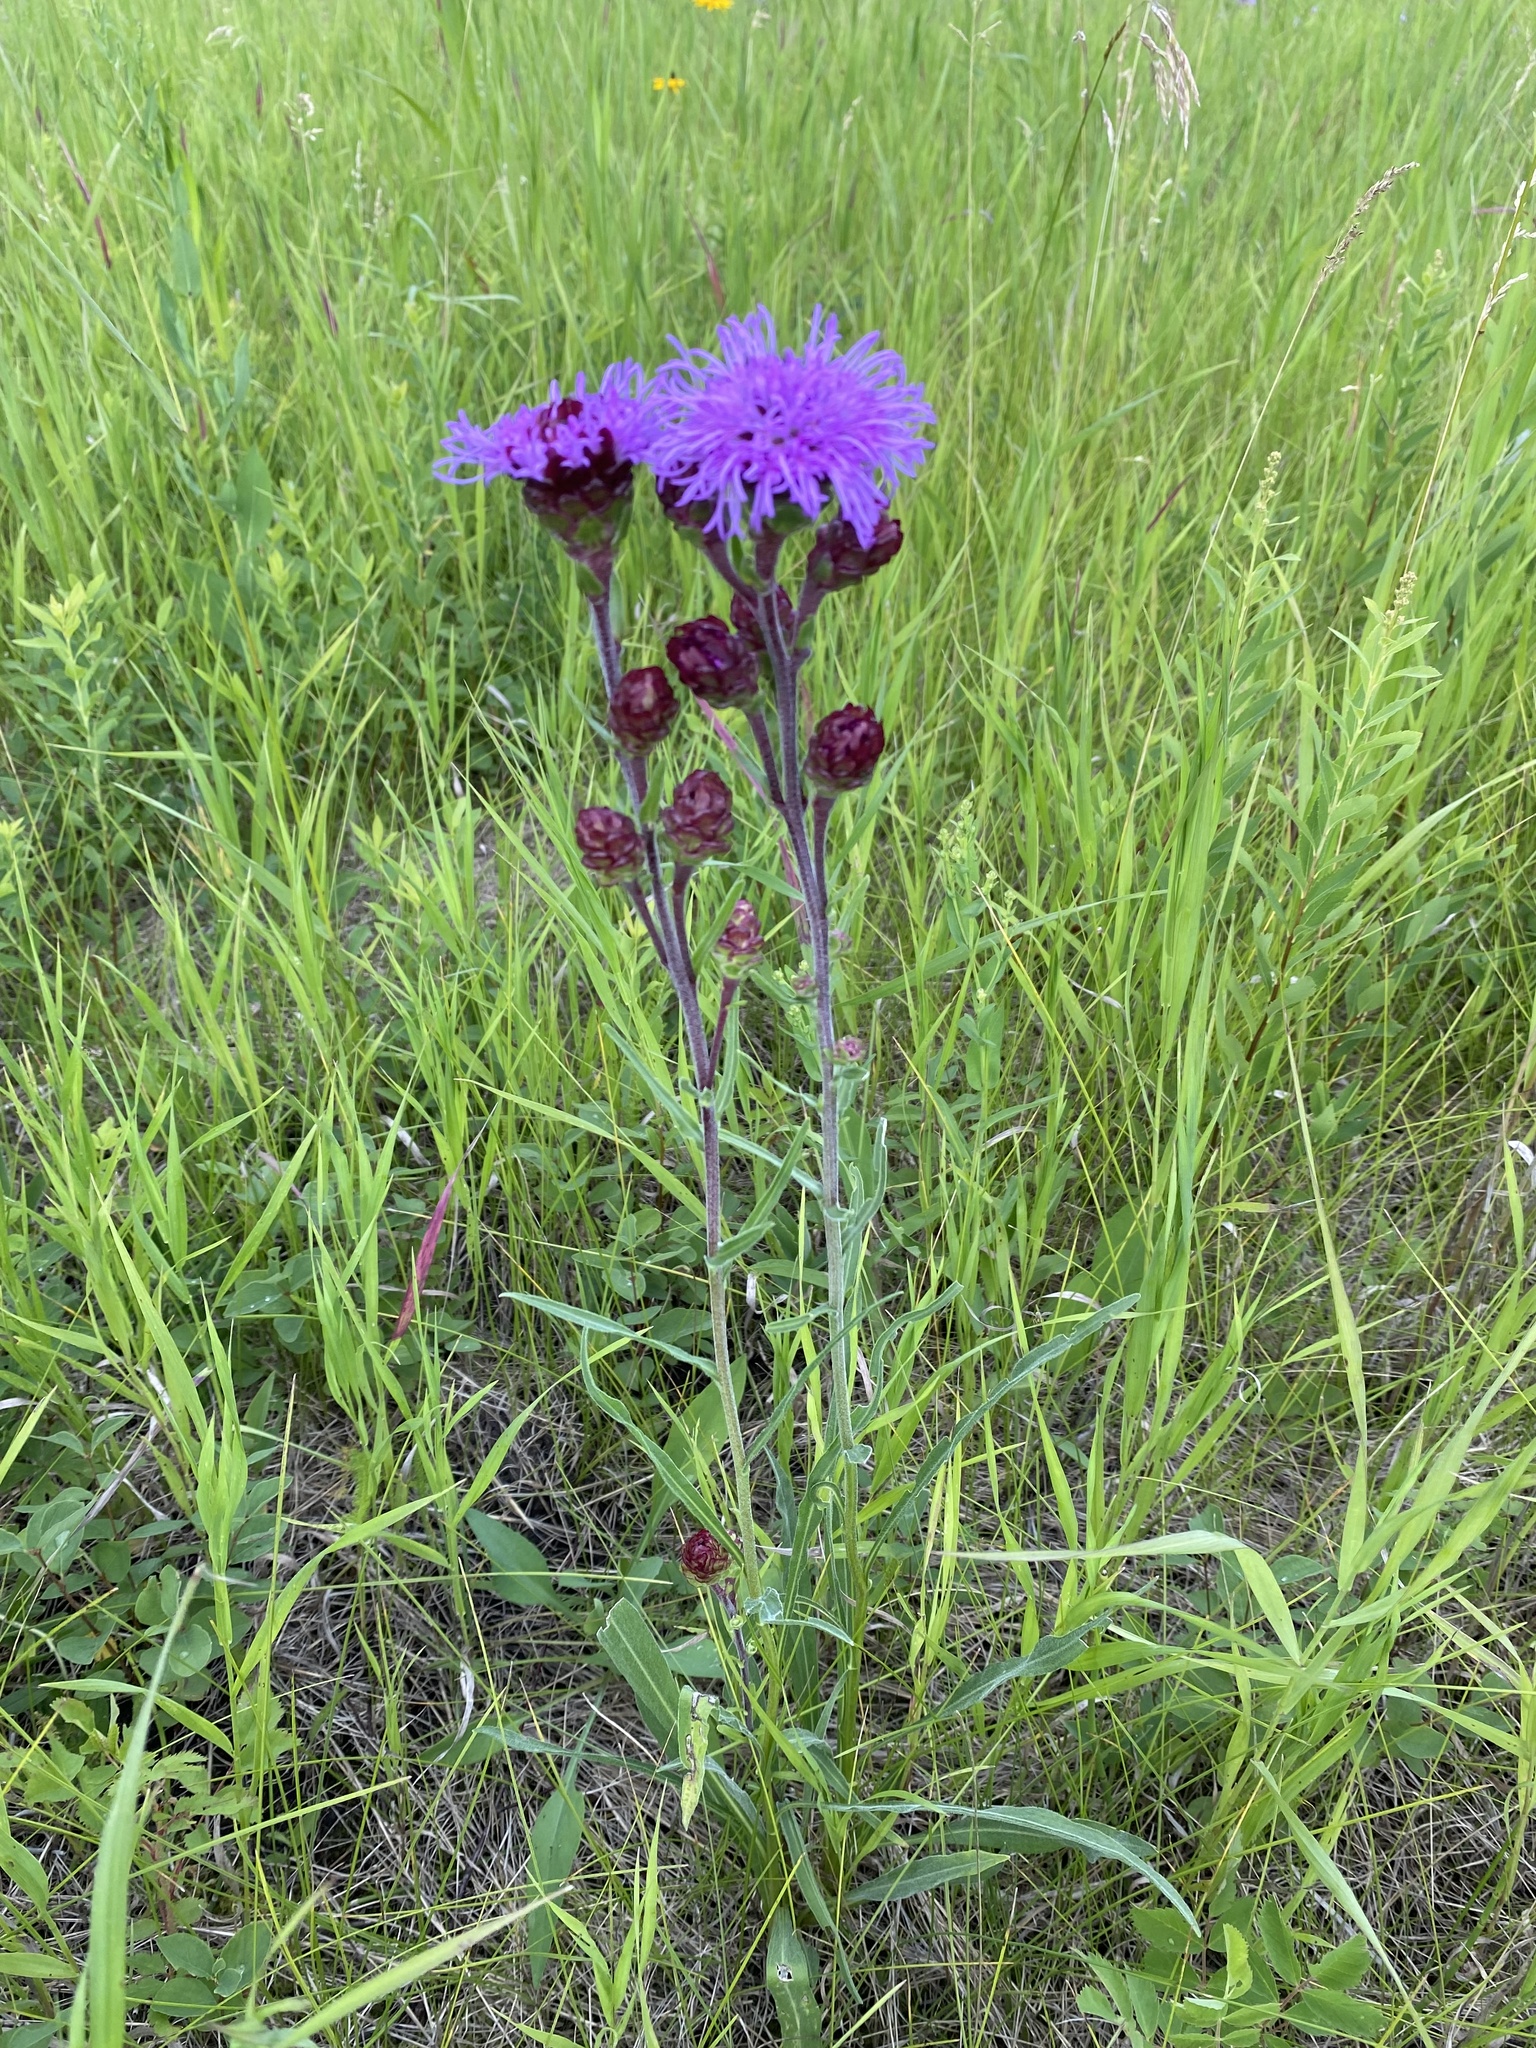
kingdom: Plantae
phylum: Tracheophyta
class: Magnoliopsida
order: Asterales
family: Asteraceae
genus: Liatris
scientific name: Liatris ligulistylis
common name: Northern plains gayfeather
